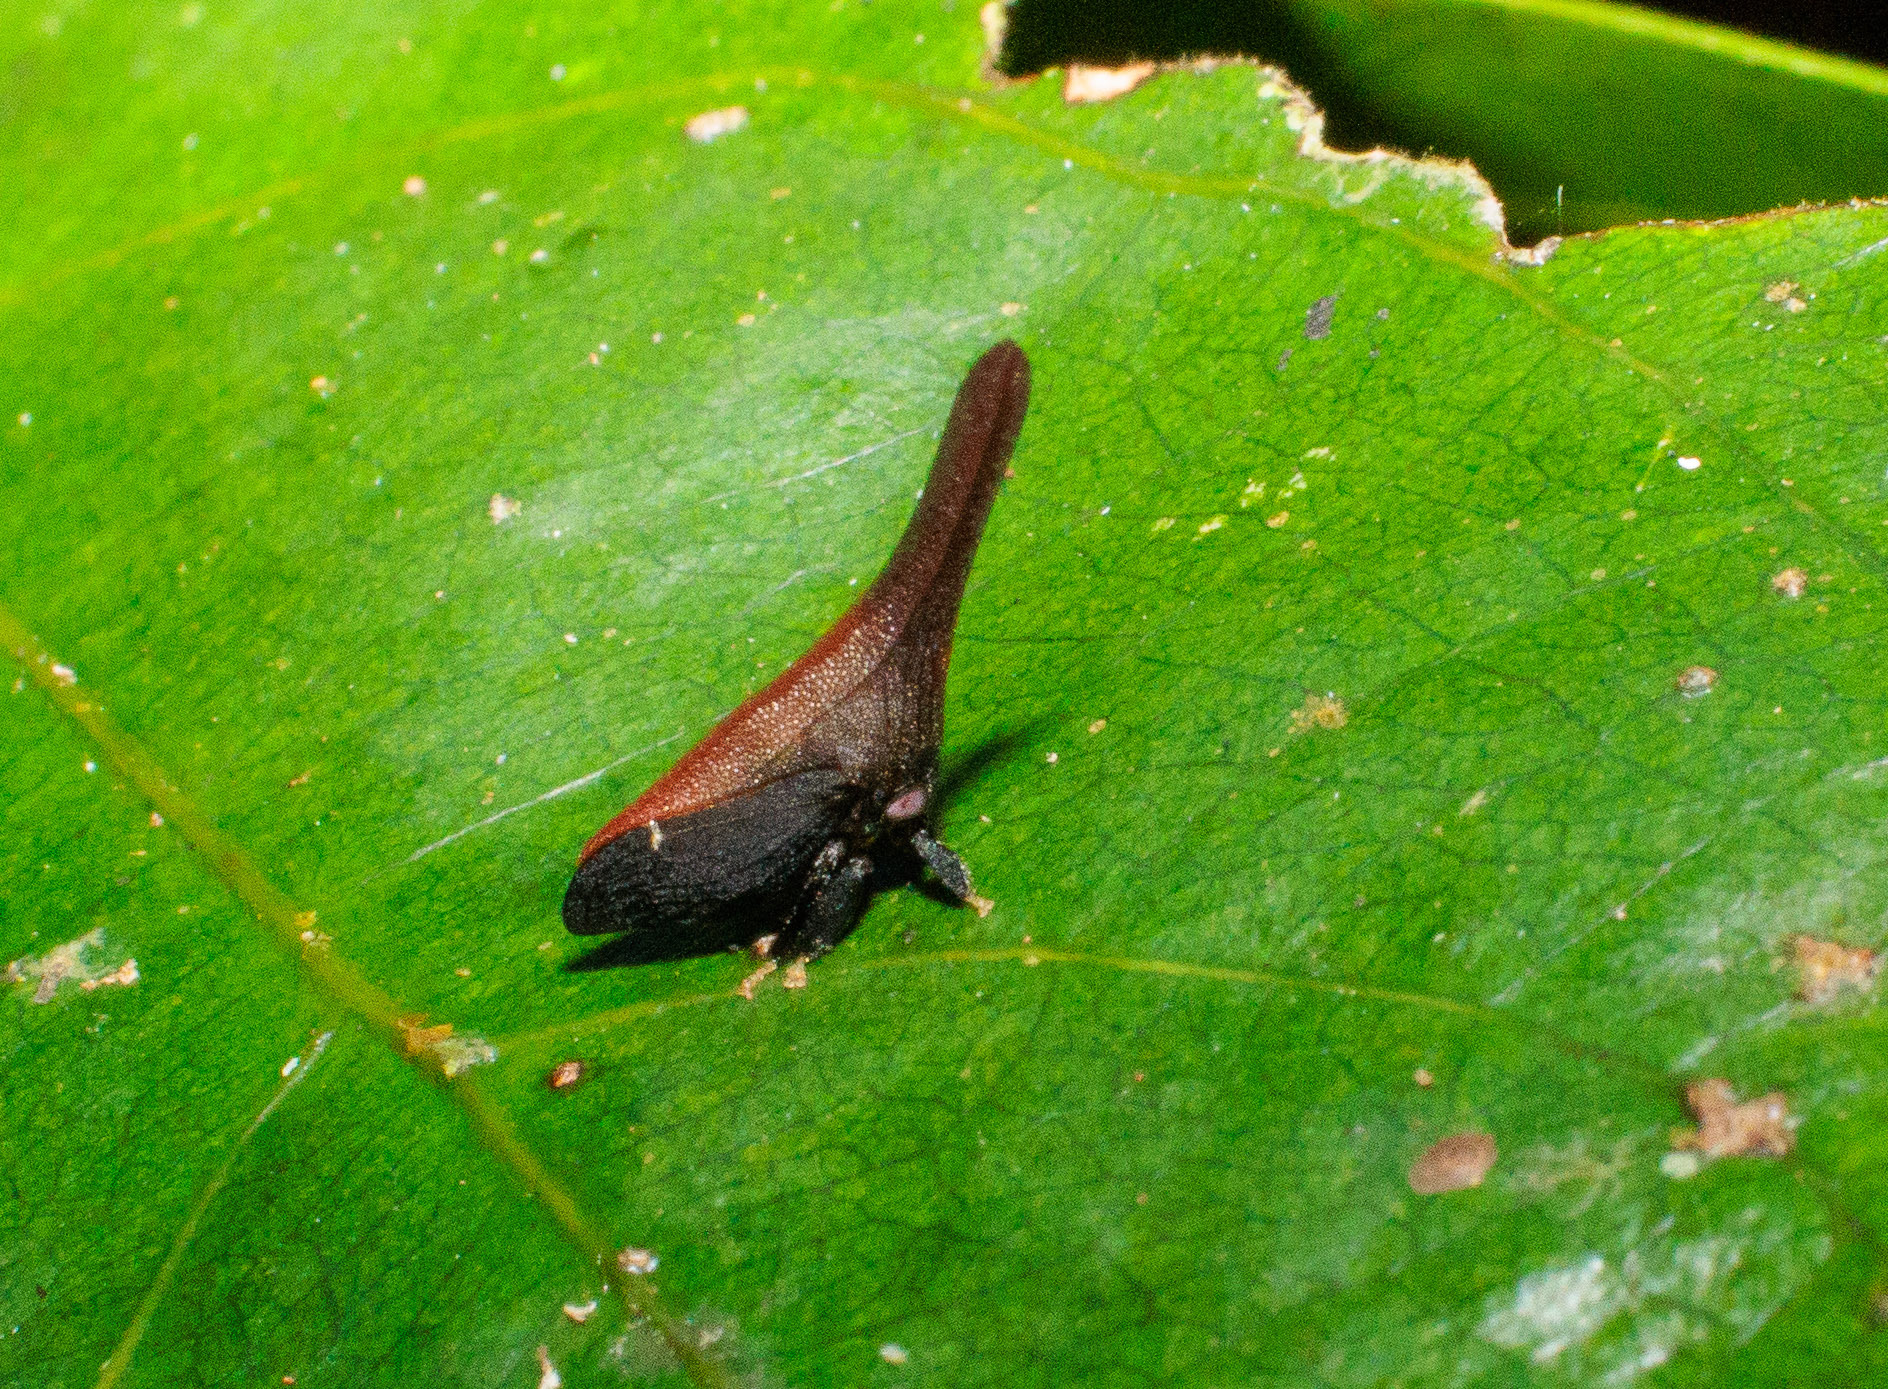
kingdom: Animalia
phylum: Arthropoda
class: Insecta
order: Hemiptera
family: Membracidae
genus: Enchenopa
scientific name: Enchenopa gladius
